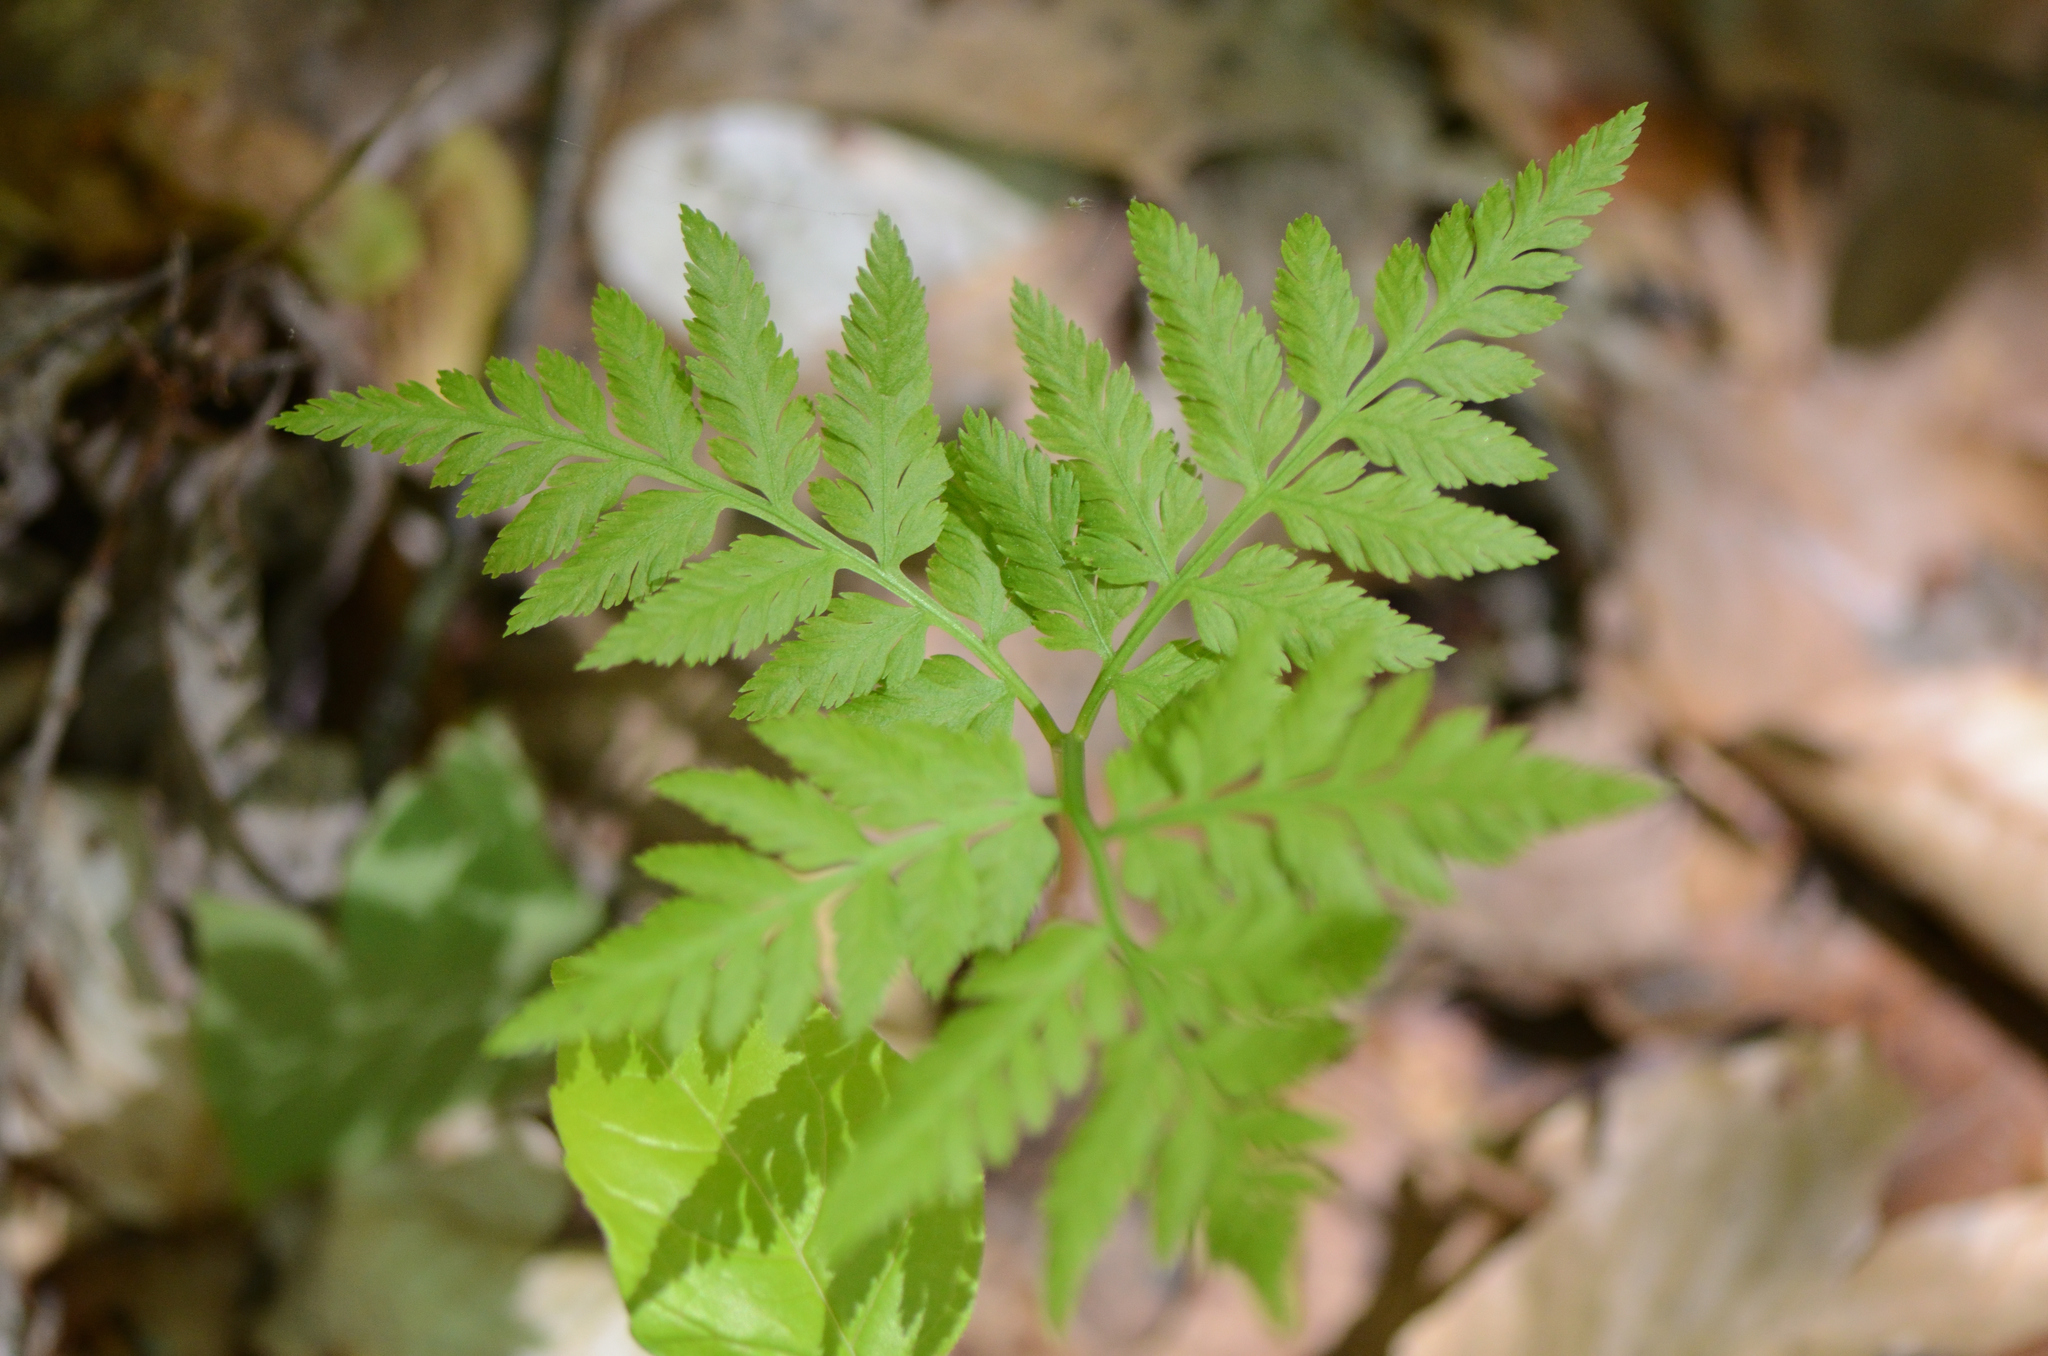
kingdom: Plantae
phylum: Tracheophyta
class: Polypodiopsida
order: Ophioglossales
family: Ophioglossaceae
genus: Botrypus
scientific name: Botrypus virginianus
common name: Common grapefern
